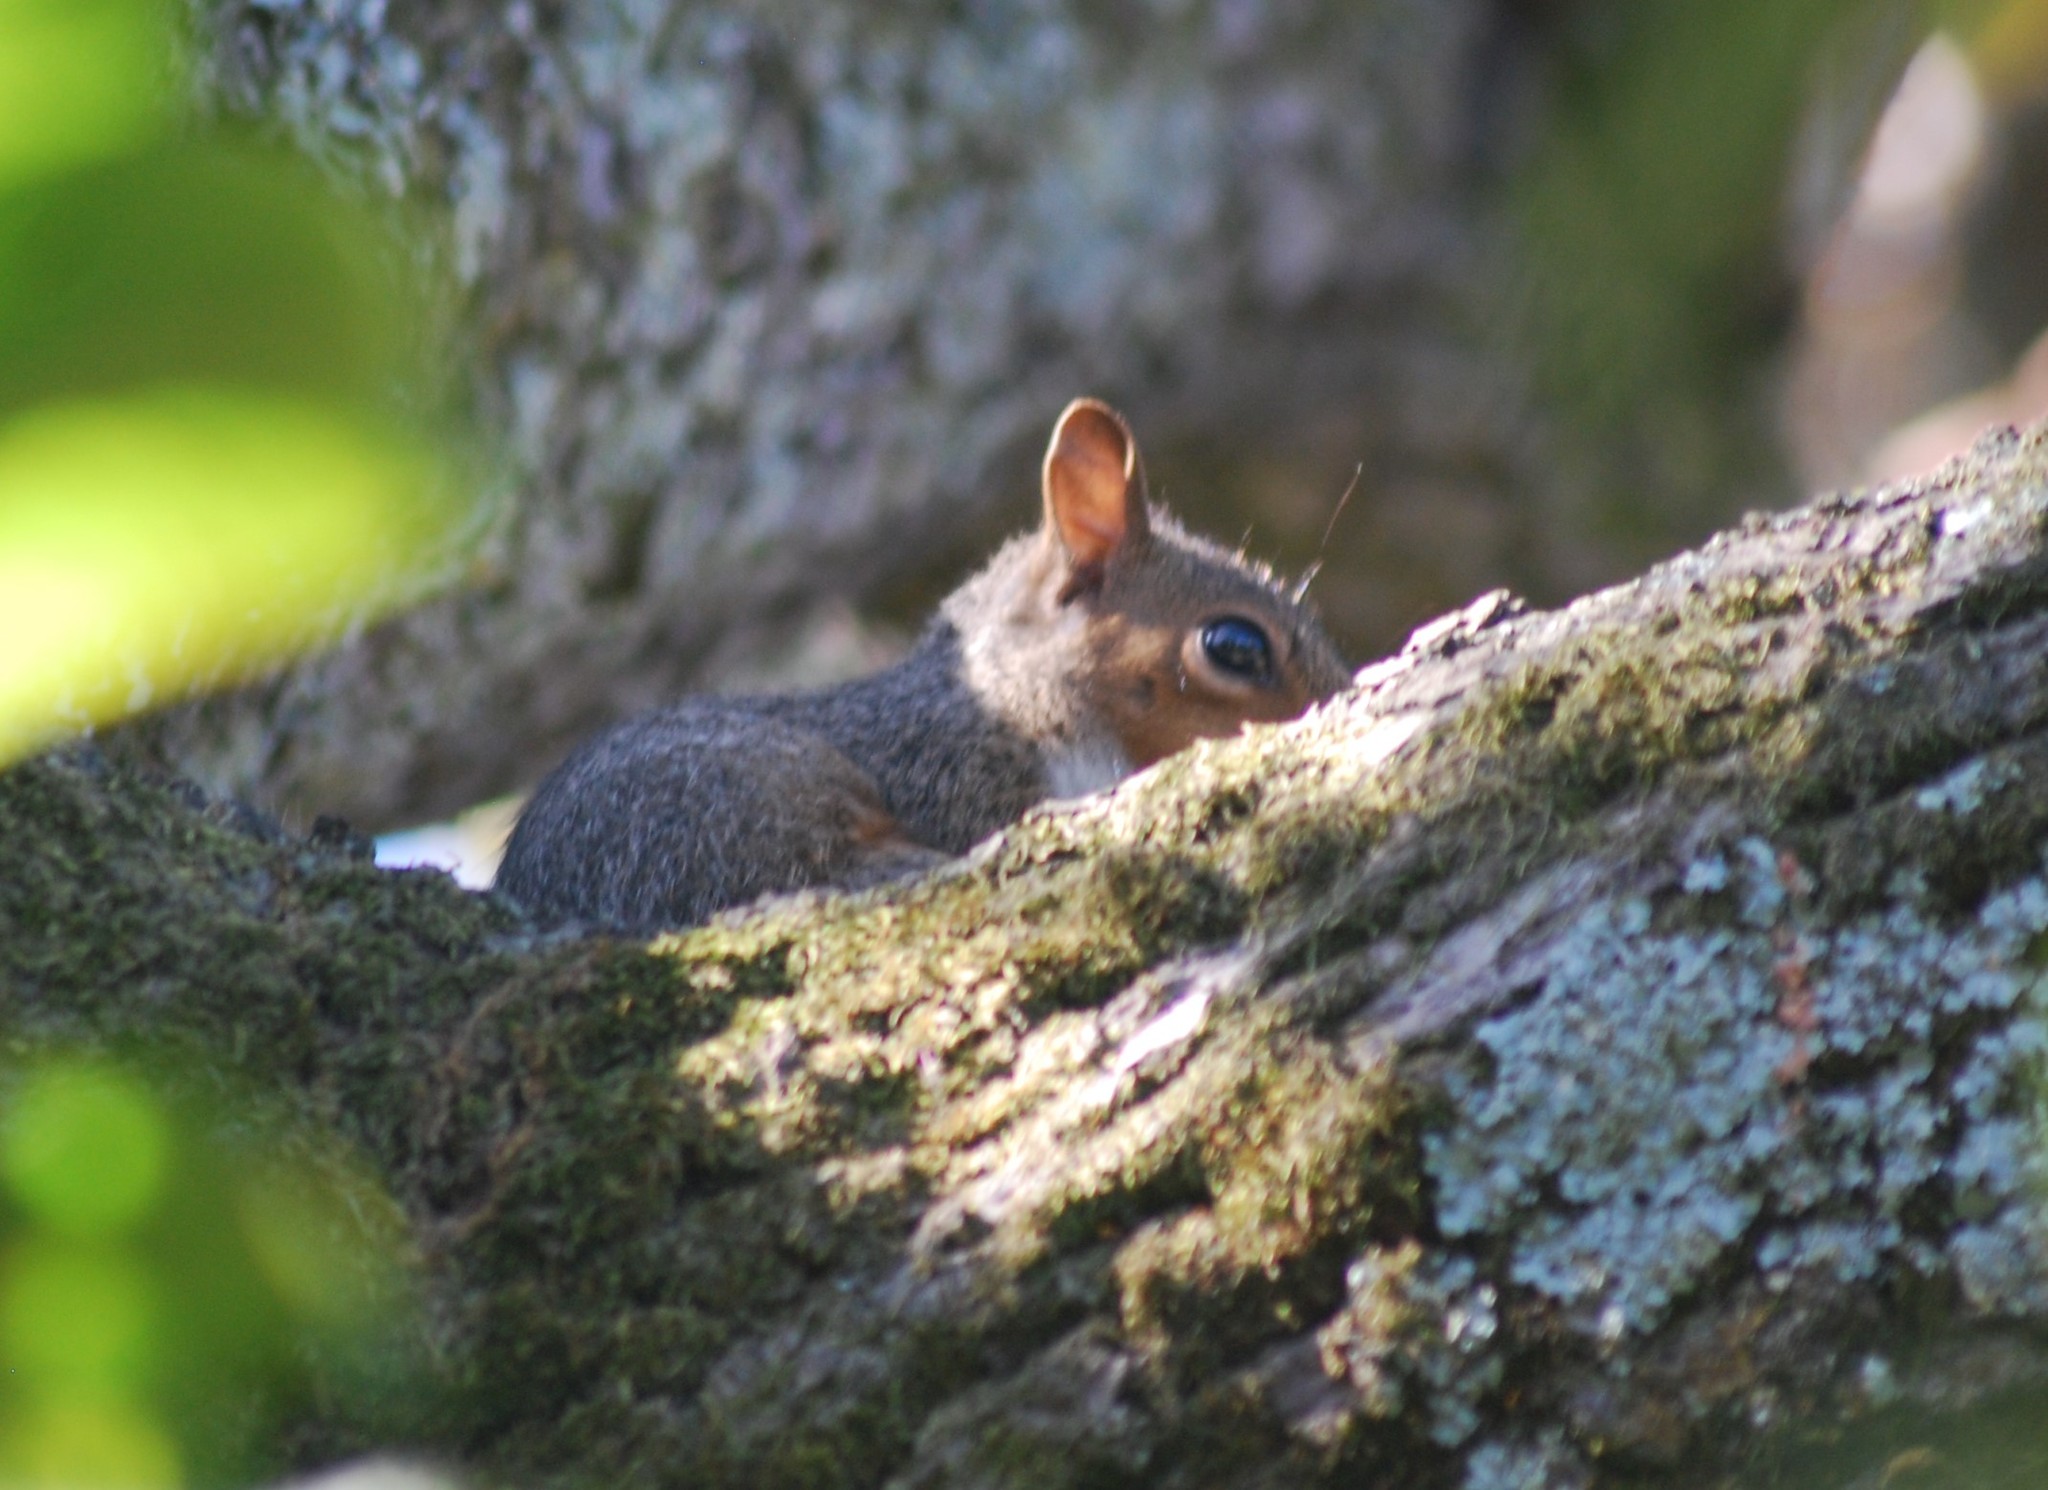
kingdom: Animalia
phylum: Chordata
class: Mammalia
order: Rodentia
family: Sciuridae
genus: Sciurus
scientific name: Sciurus carolinensis
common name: Eastern gray squirrel
